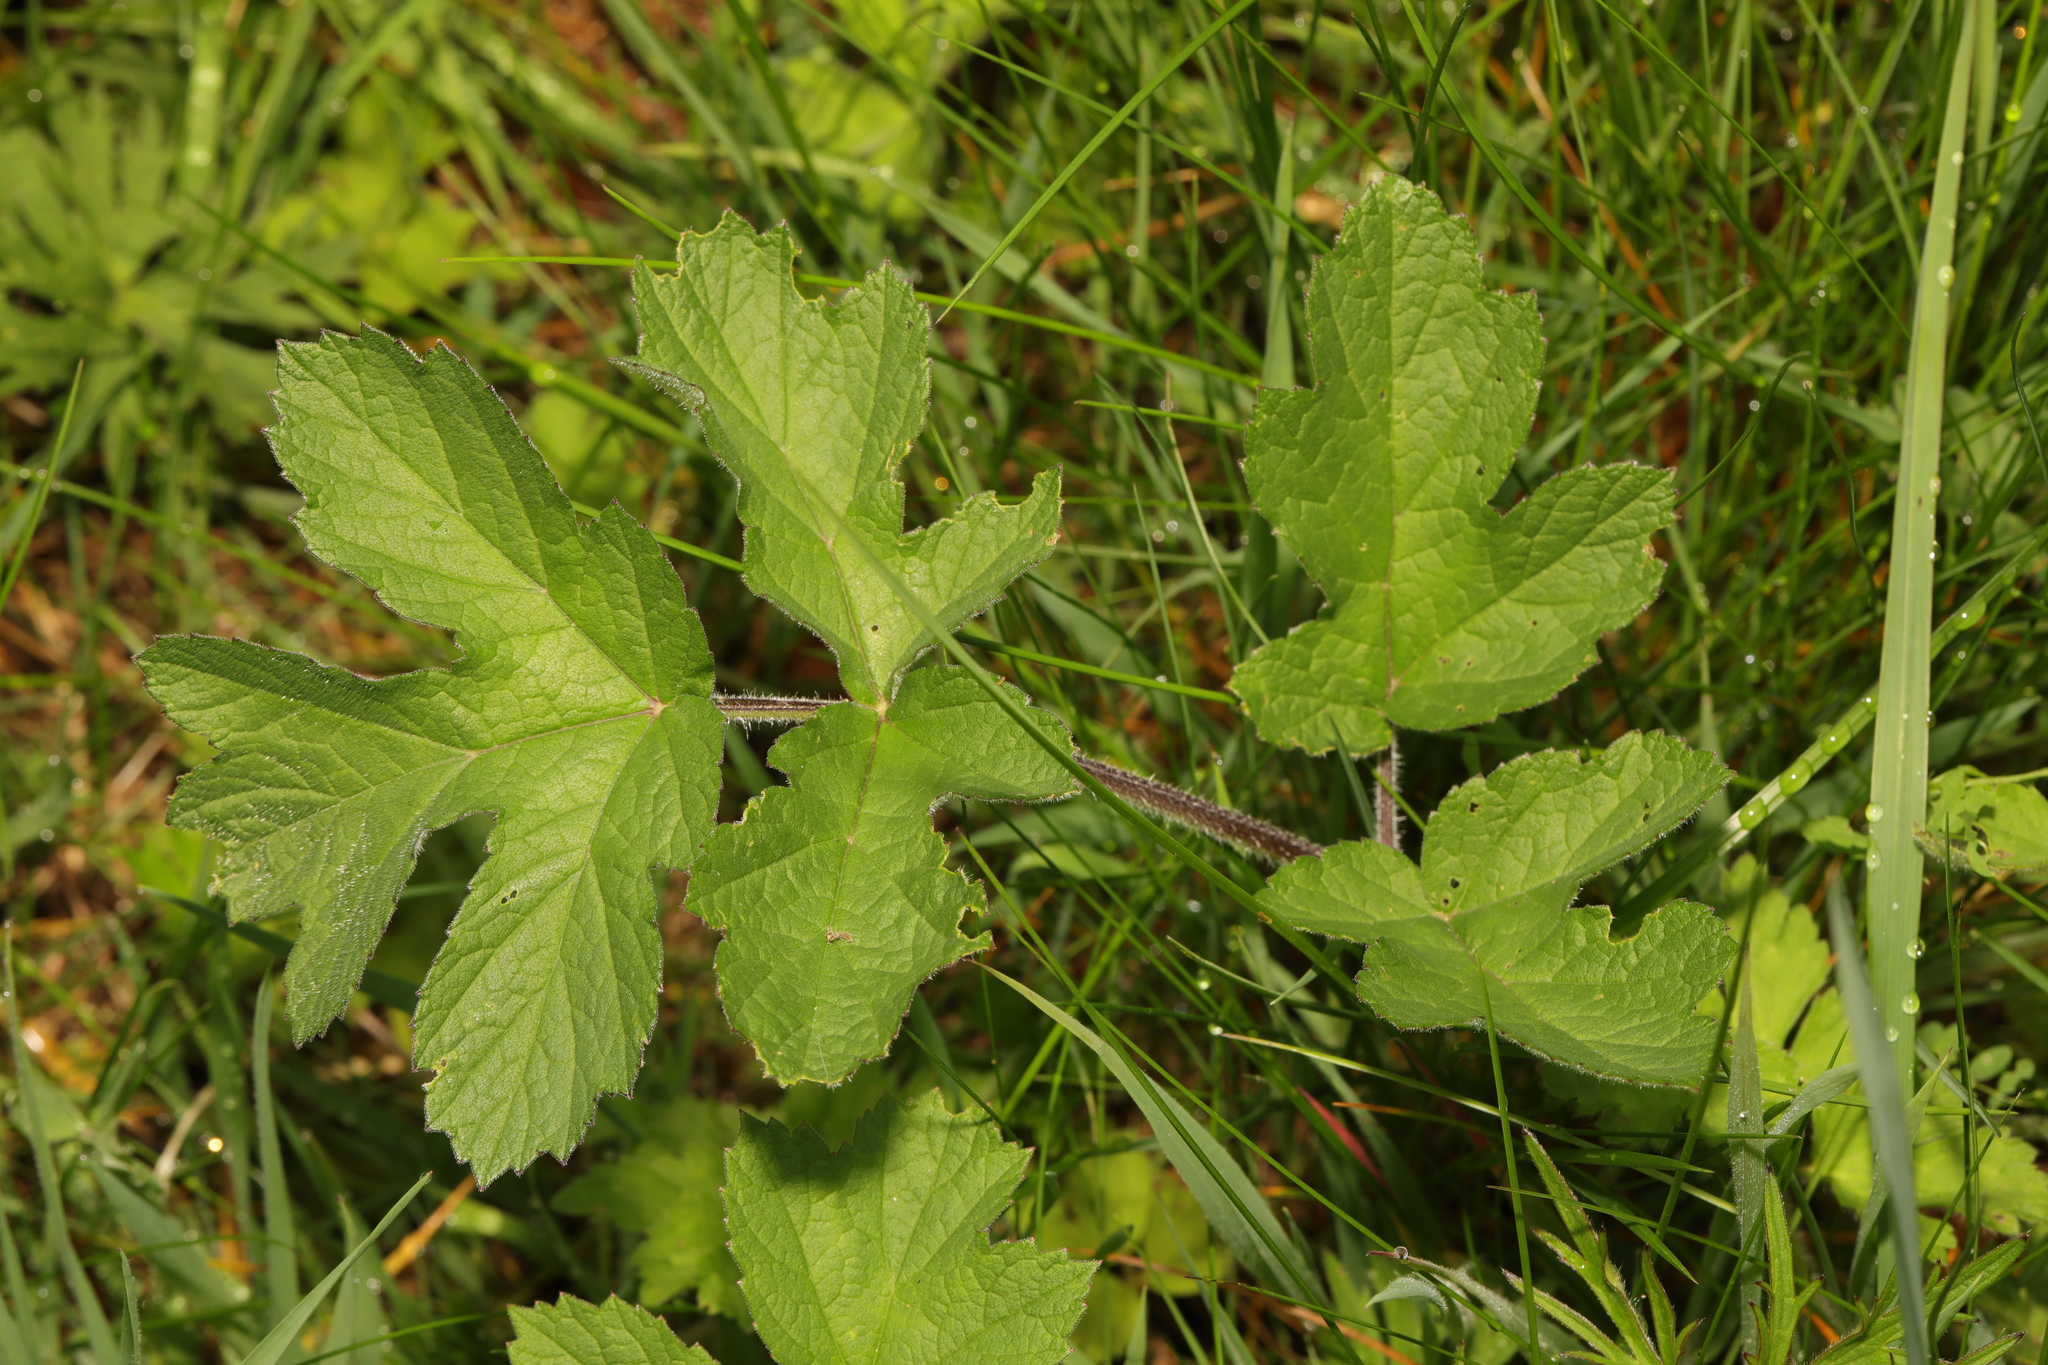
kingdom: Plantae
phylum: Tracheophyta
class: Magnoliopsida
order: Apiales
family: Apiaceae
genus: Heracleum
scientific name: Heracleum sphondylium
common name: Hogweed
